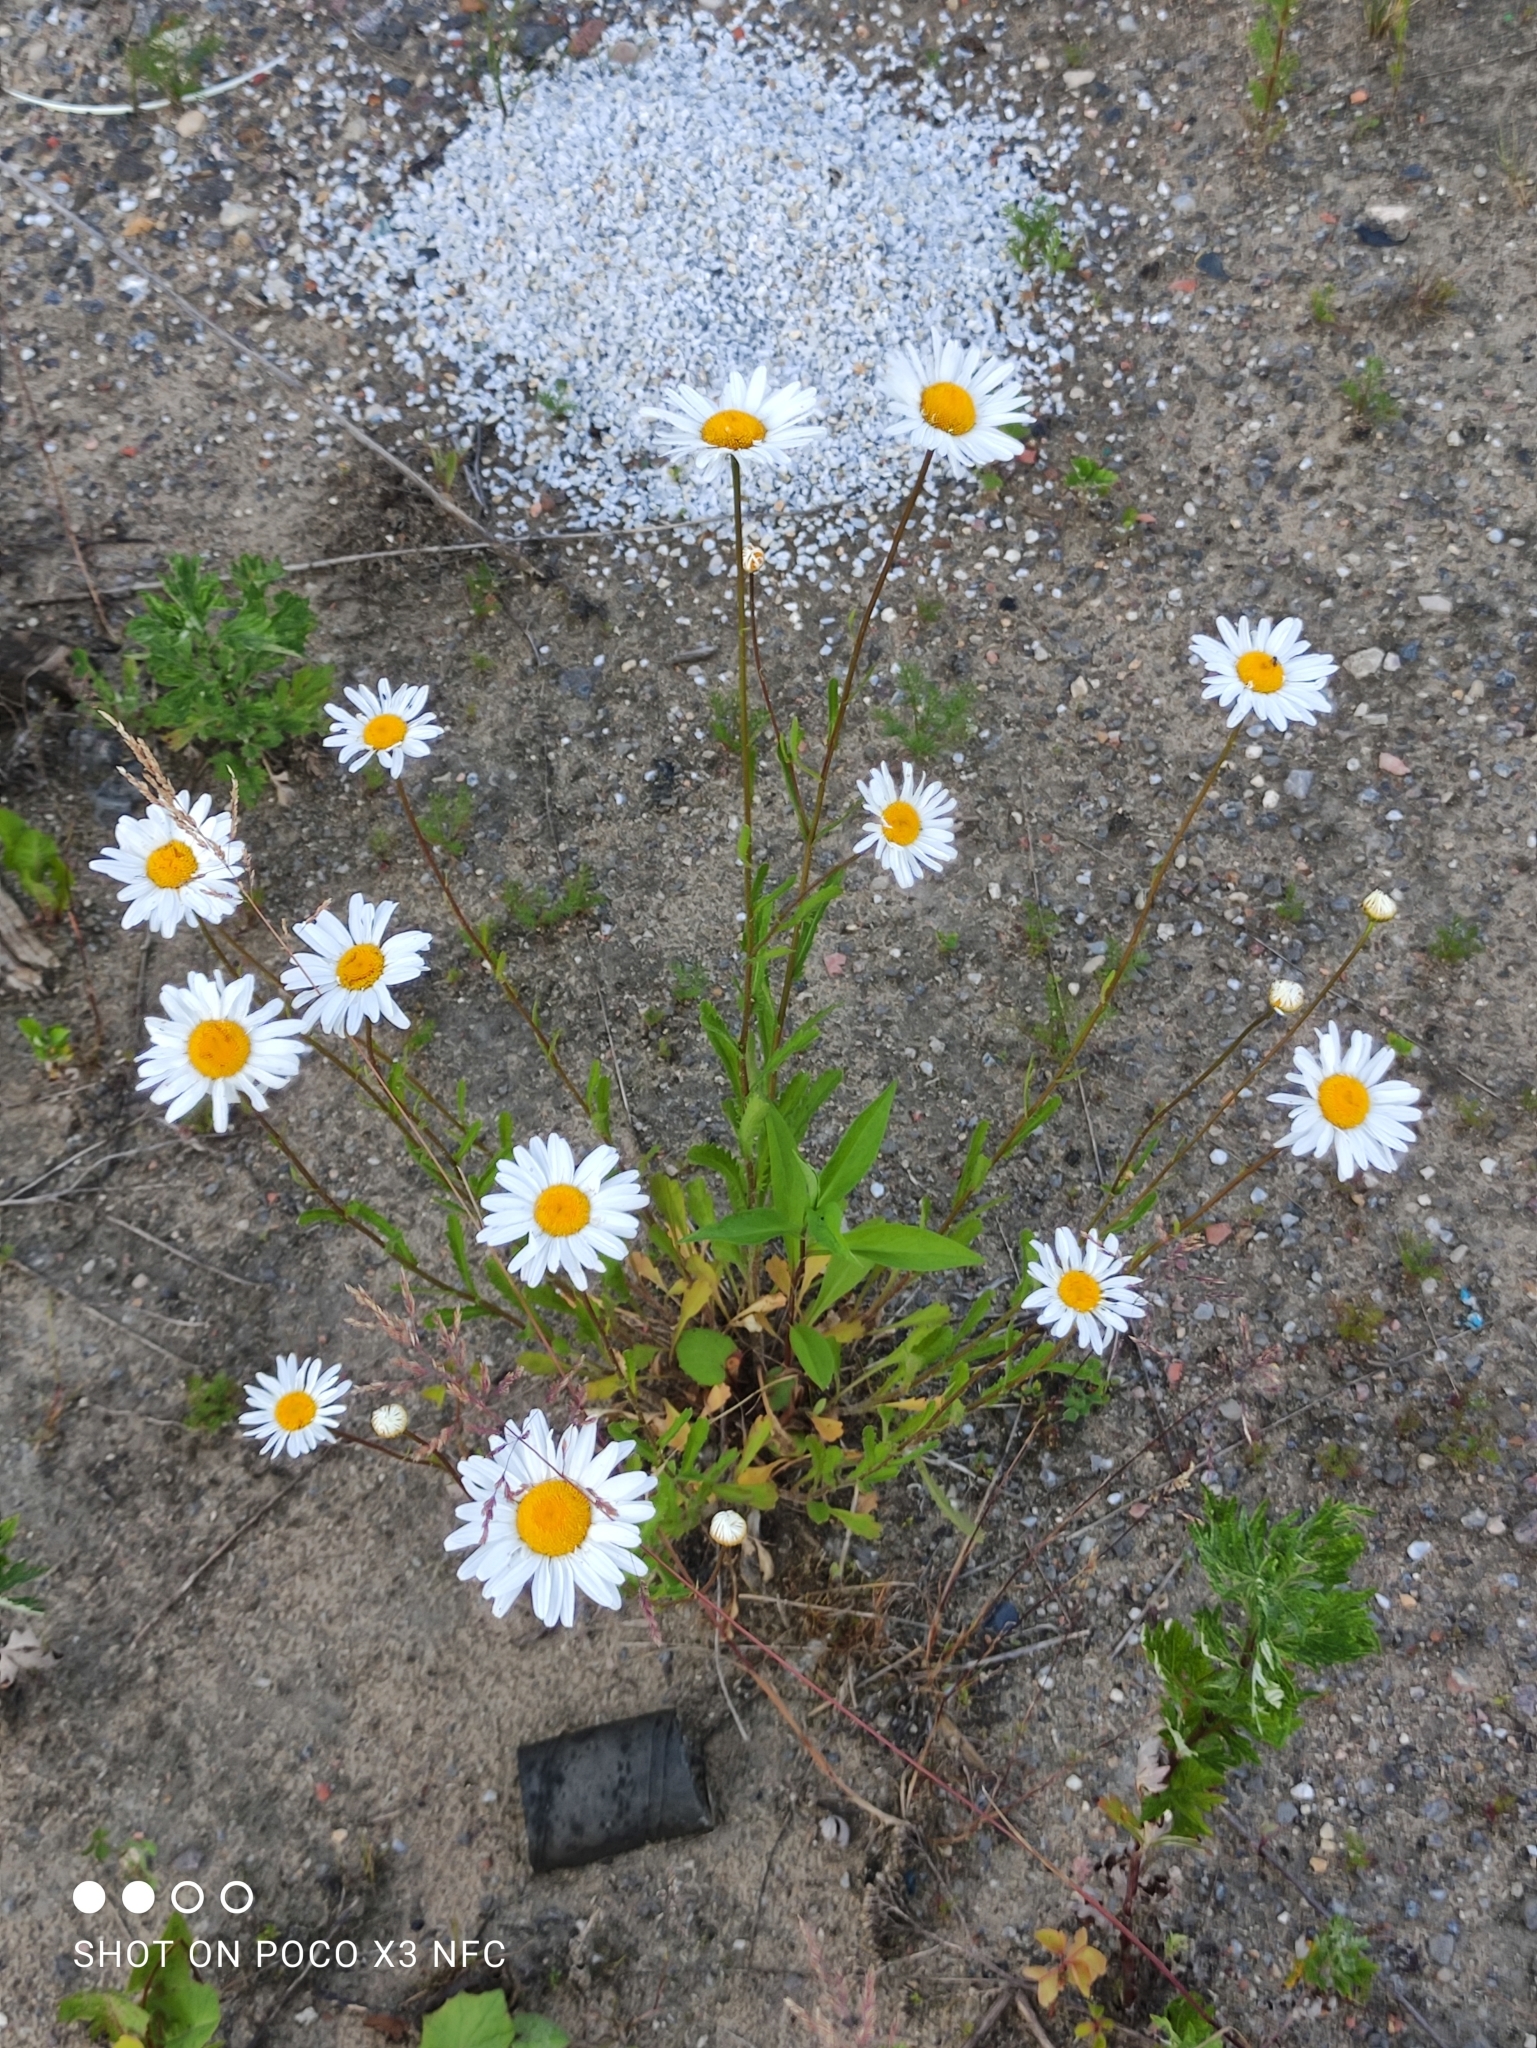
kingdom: Plantae
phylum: Tracheophyta
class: Magnoliopsida
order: Asterales
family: Asteraceae
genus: Leucanthemum
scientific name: Leucanthemum vulgare
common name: Oxeye daisy
